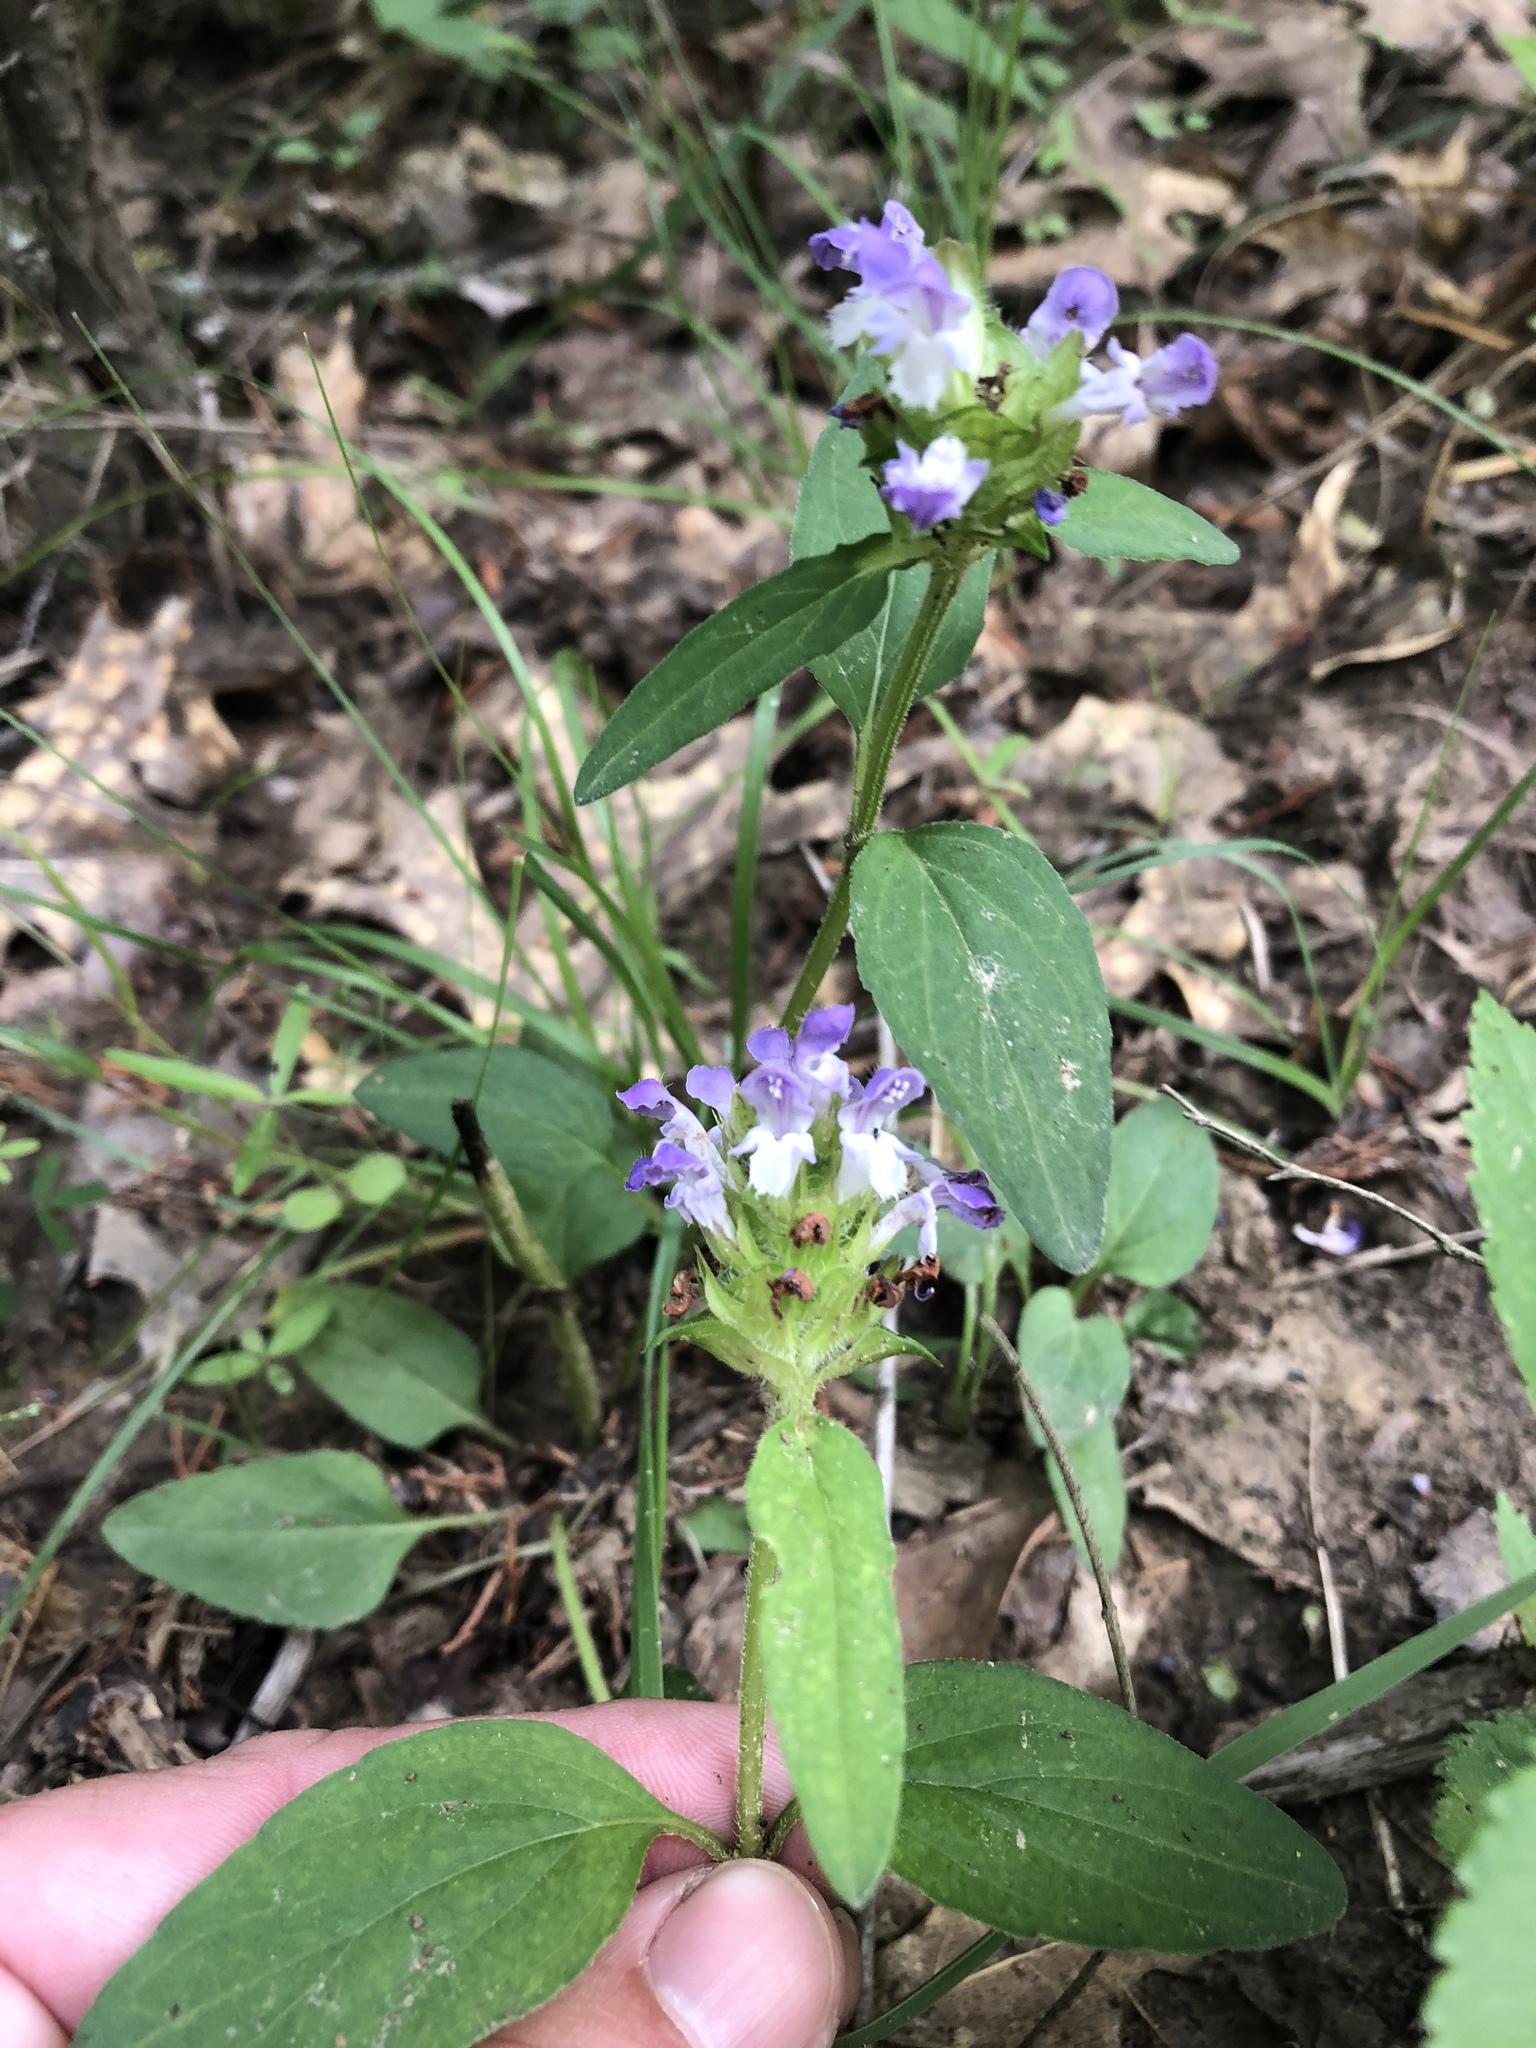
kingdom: Plantae
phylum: Tracheophyta
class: Magnoliopsida
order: Lamiales
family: Lamiaceae
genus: Prunella
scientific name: Prunella vulgaris
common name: Heal-all
